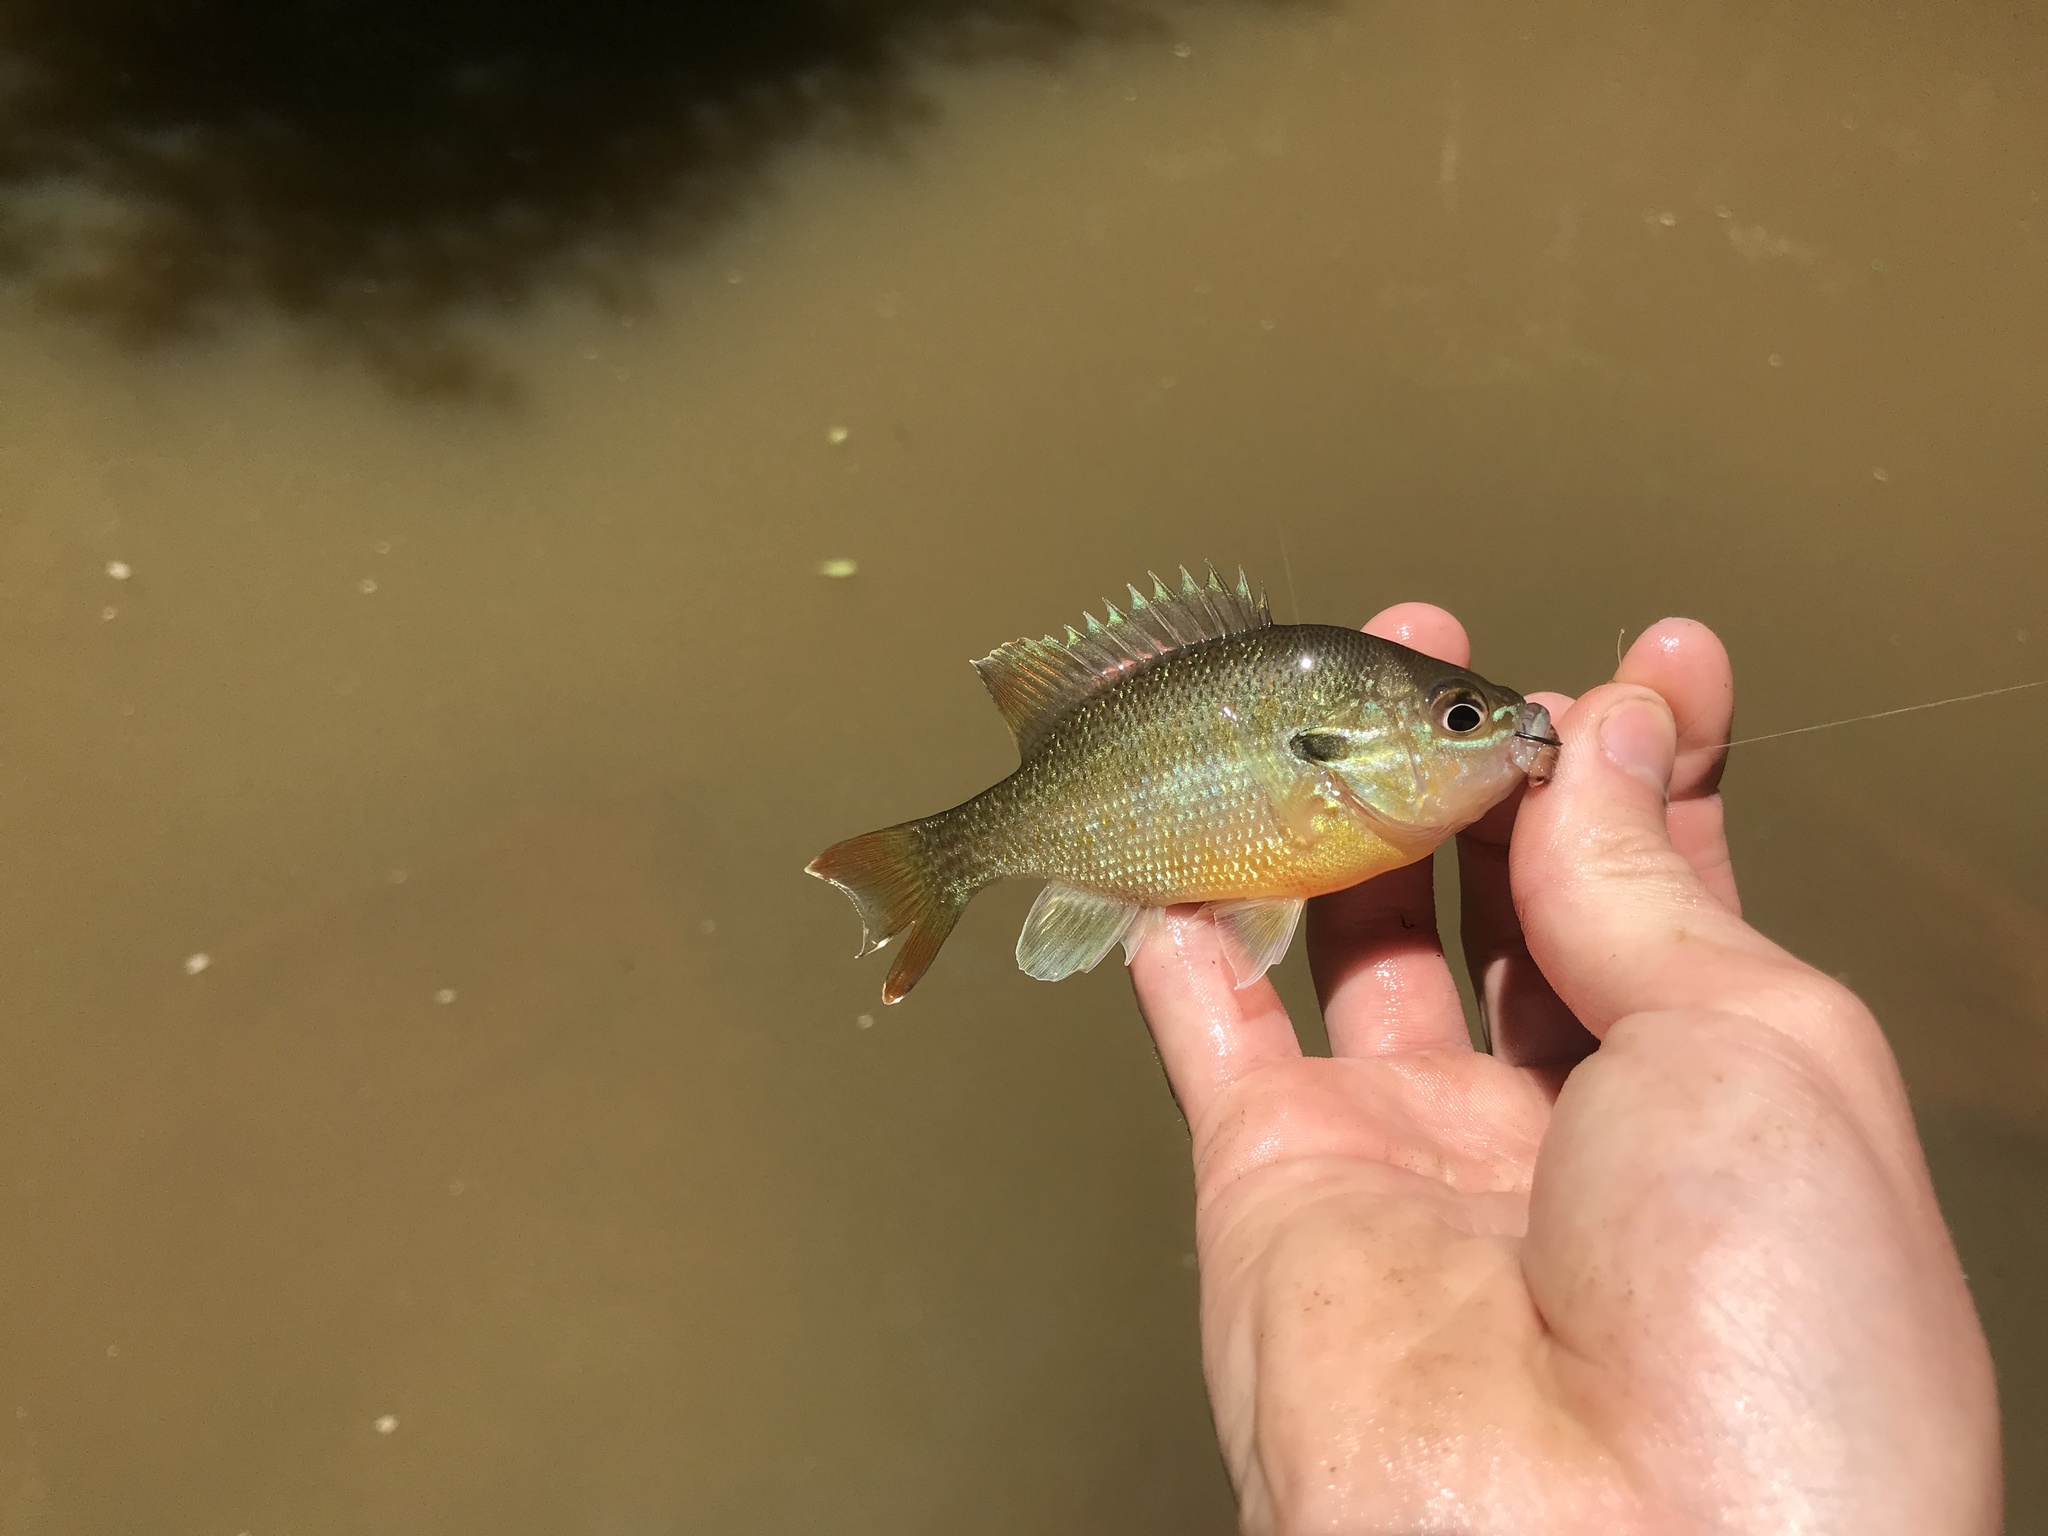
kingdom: Animalia
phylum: Chordata
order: Perciformes
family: Centrarchidae
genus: Lepomis
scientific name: Lepomis auritus
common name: Redbreast sunfish
